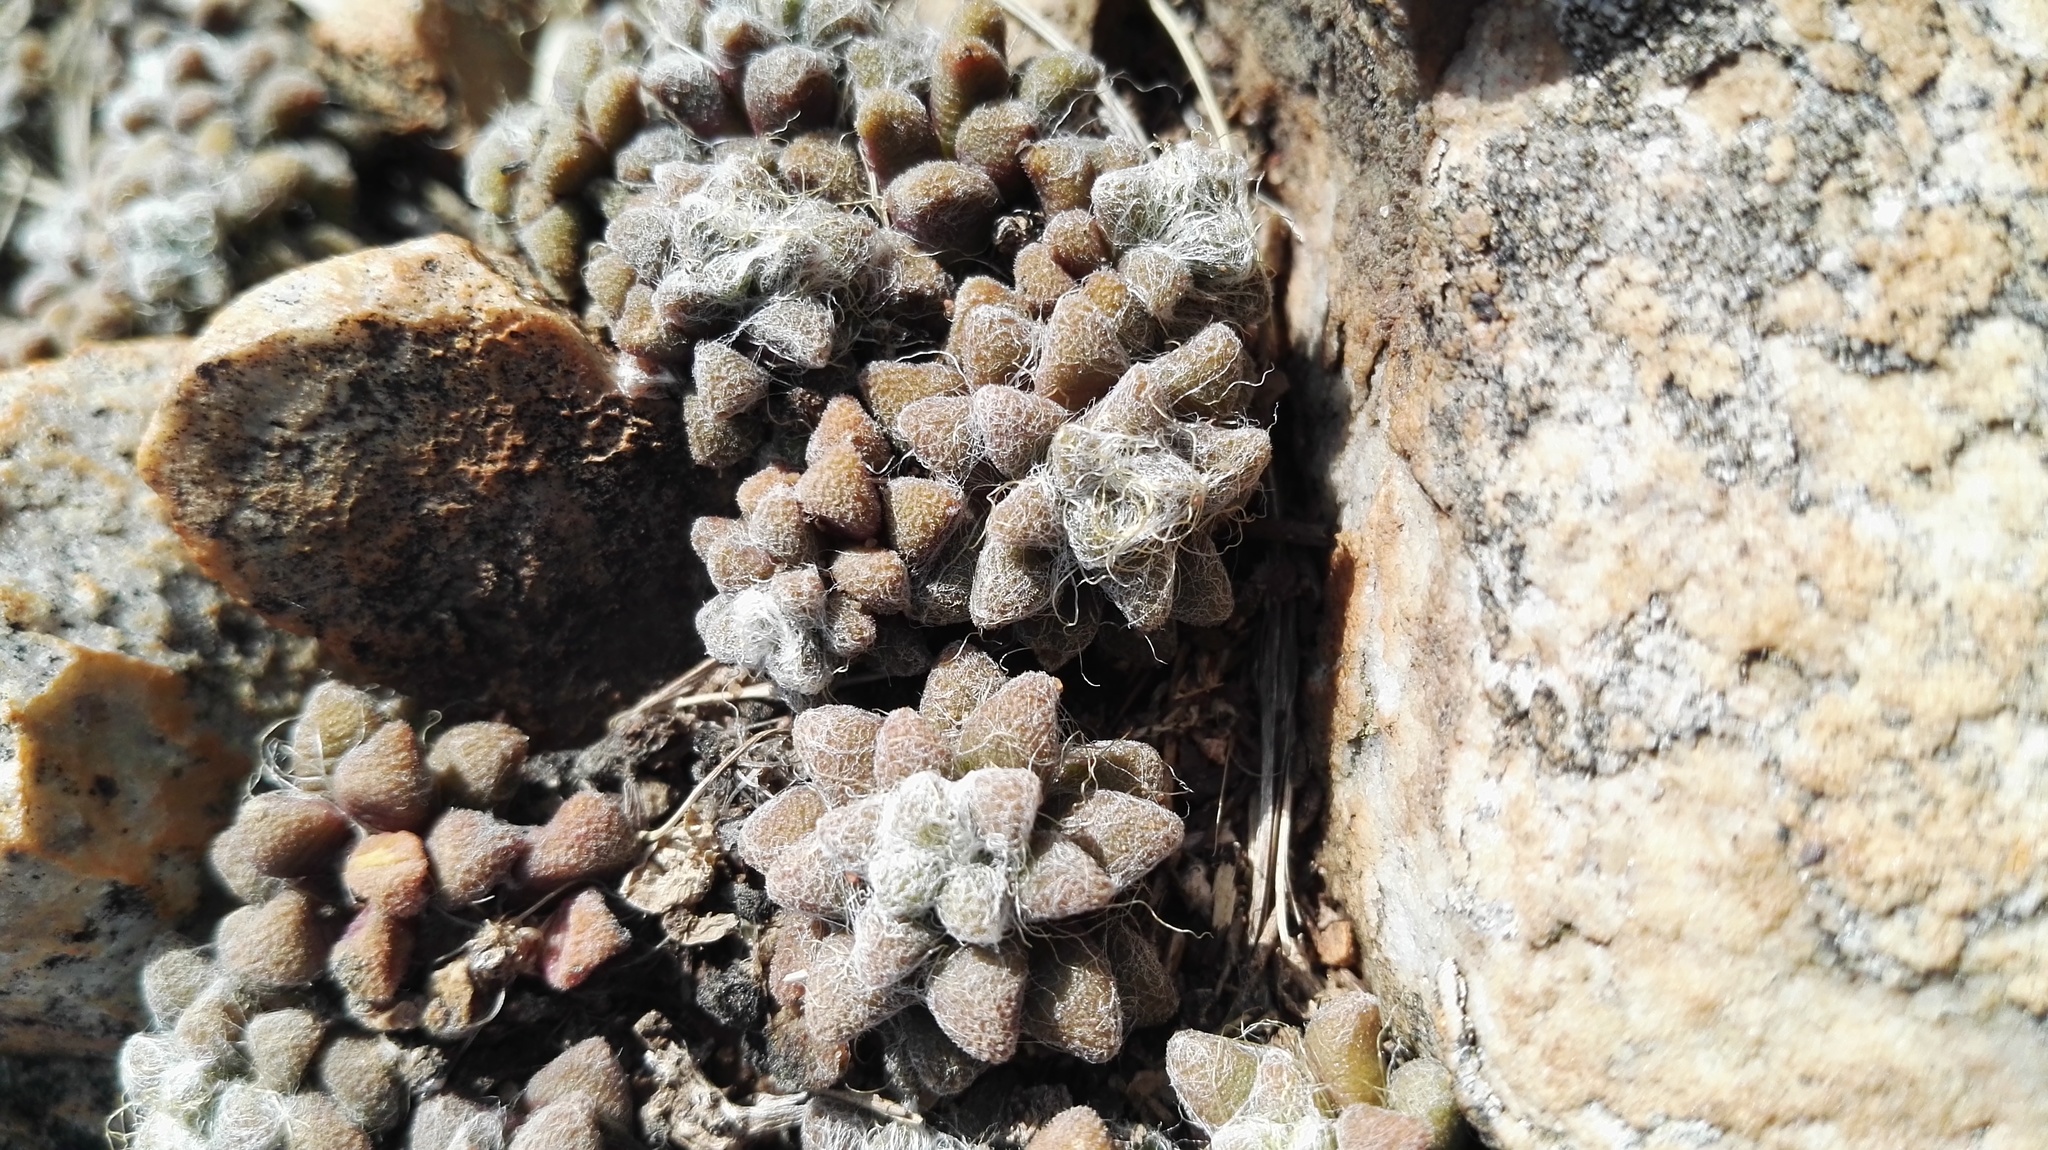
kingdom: Plantae
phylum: Tracheophyta
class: Magnoliopsida
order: Caryophyllales
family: Anacampserotaceae
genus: Anacampseros
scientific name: Anacampseros subnuda
